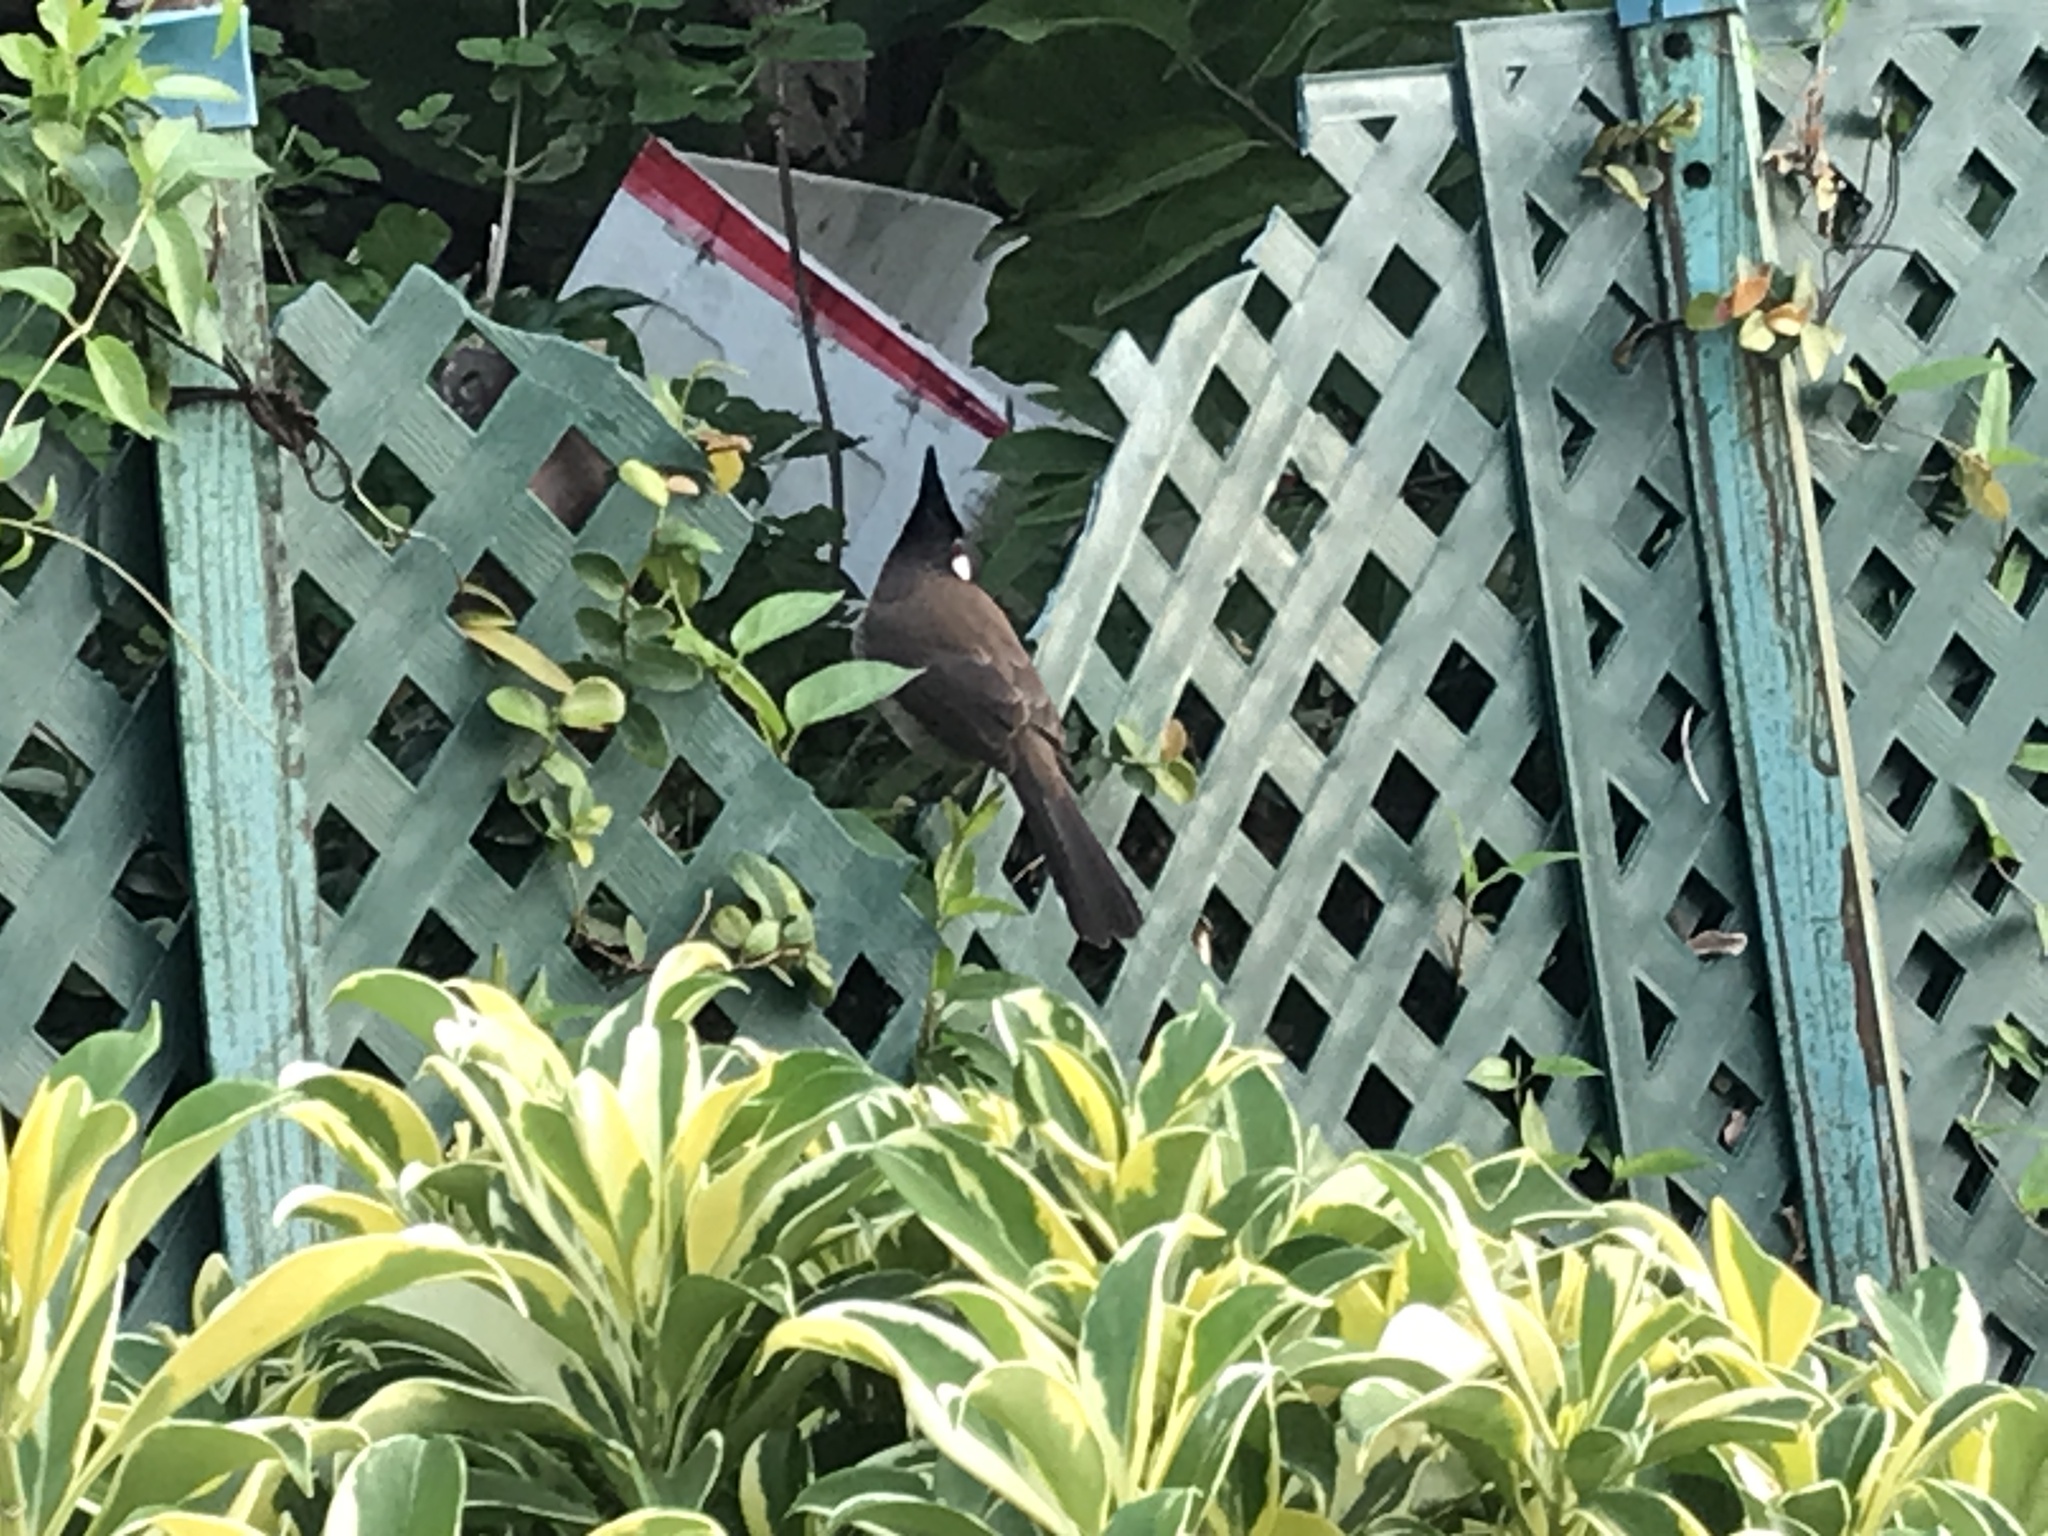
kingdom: Animalia
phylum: Chordata
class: Aves
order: Passeriformes
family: Pycnonotidae
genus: Pycnonotus
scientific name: Pycnonotus jocosus
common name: Red-whiskered bulbul
